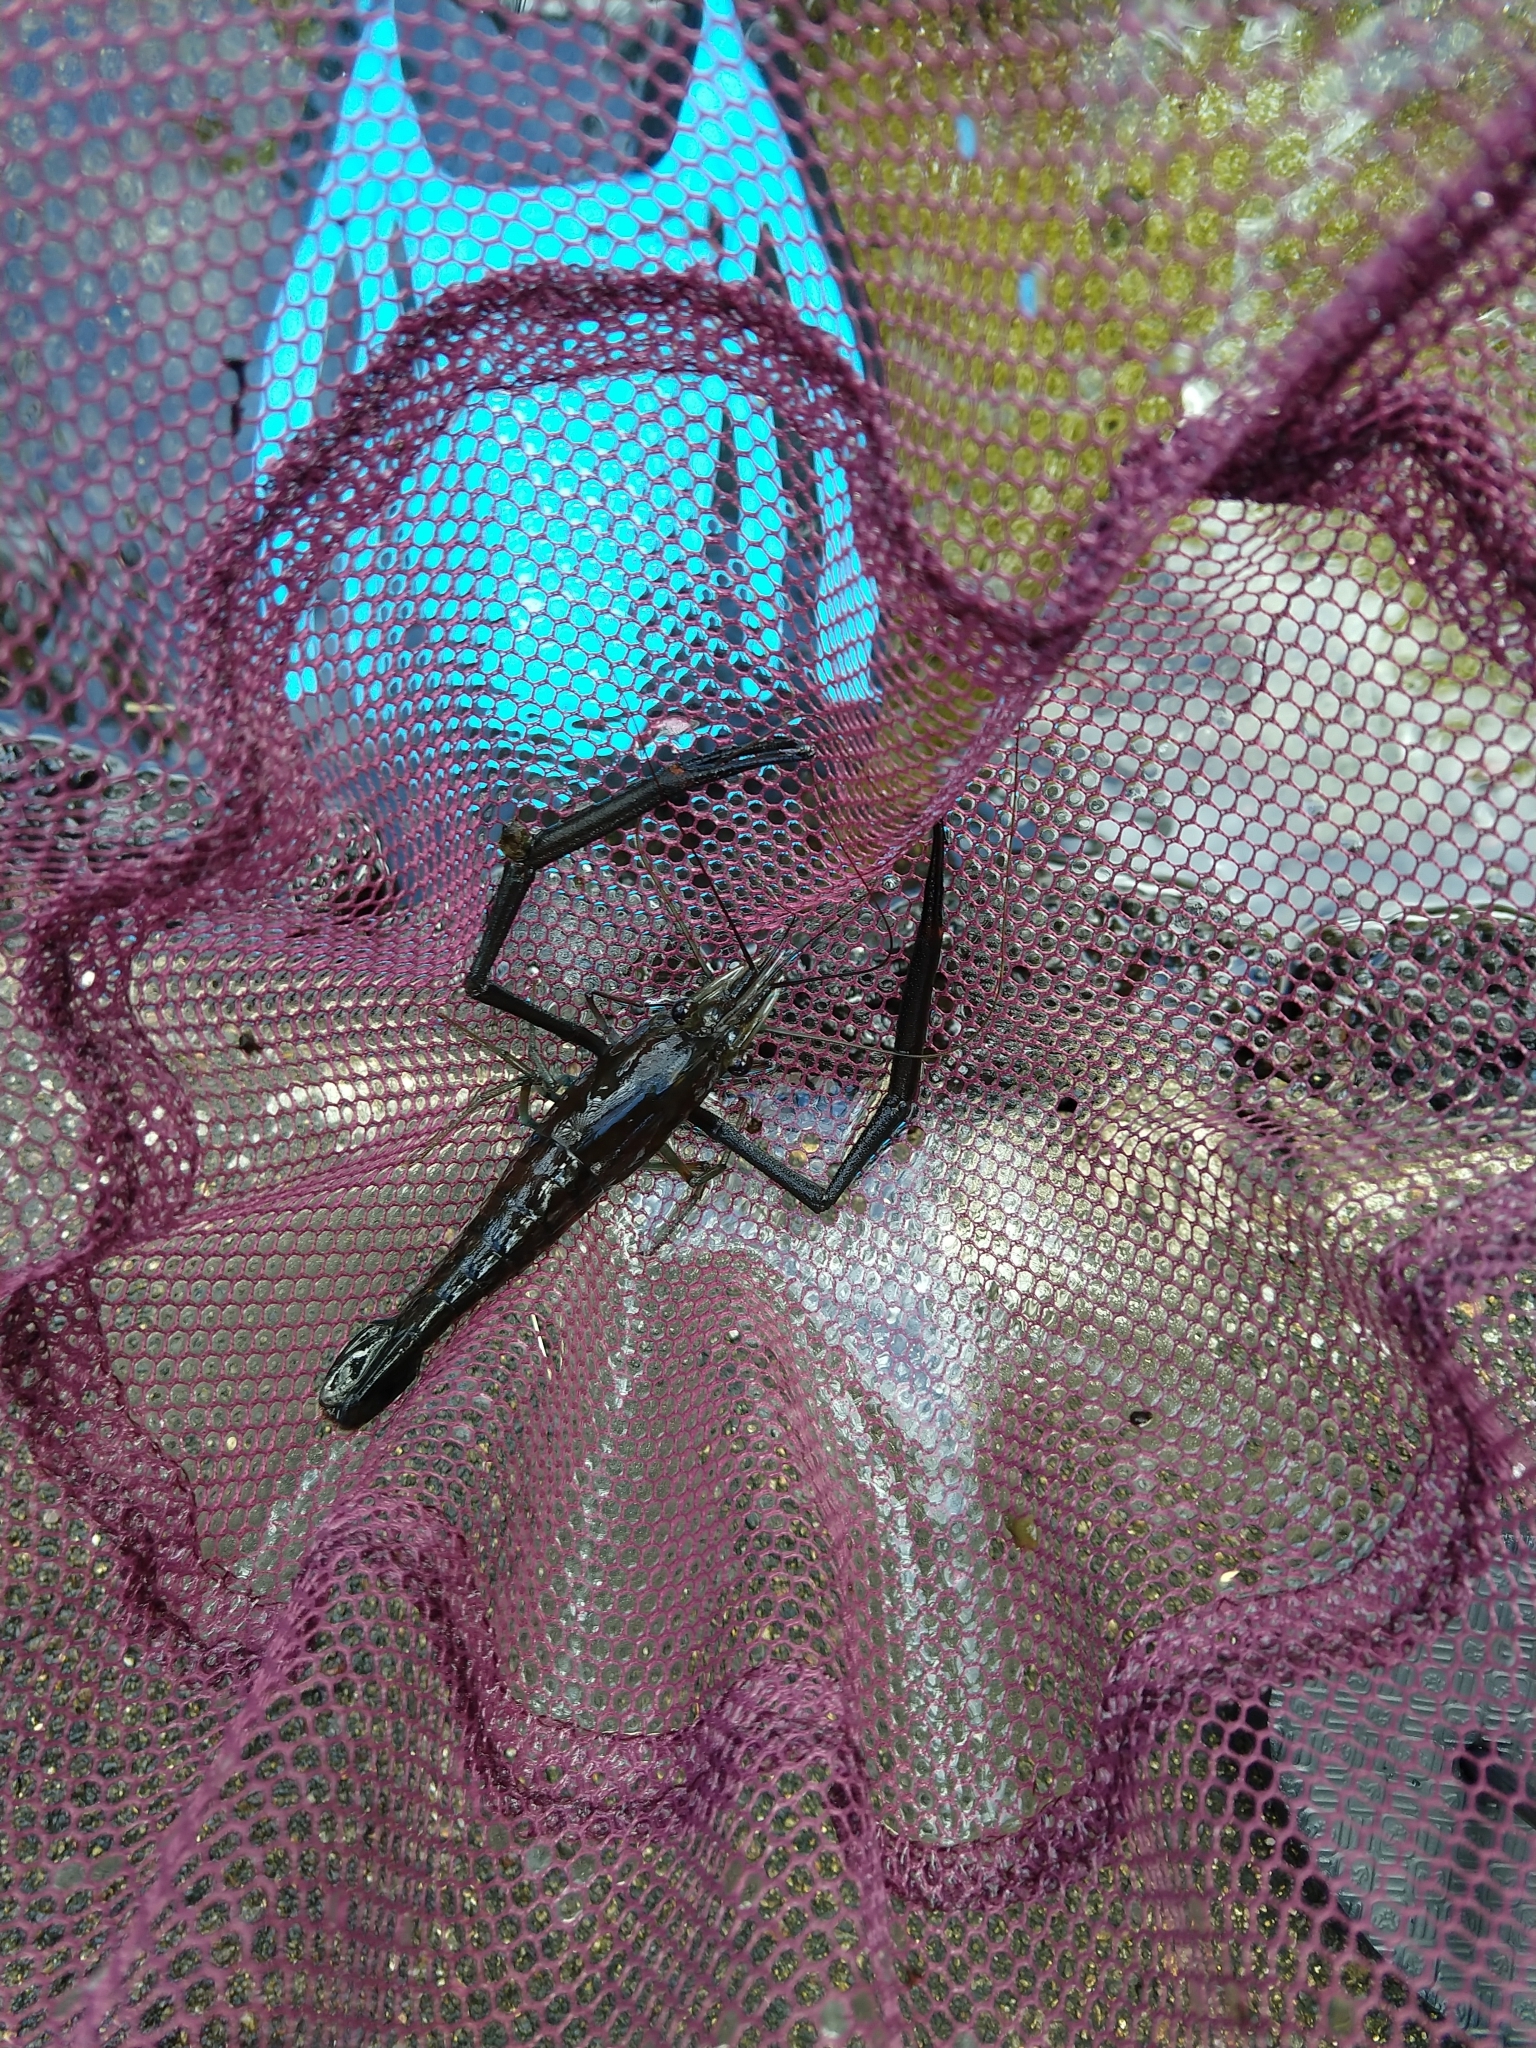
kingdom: Animalia
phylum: Arthropoda
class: Malacostraca
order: Decapoda
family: Palaemonidae
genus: Macrobrachium
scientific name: Macrobrachium lar
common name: Monkey river prawn
